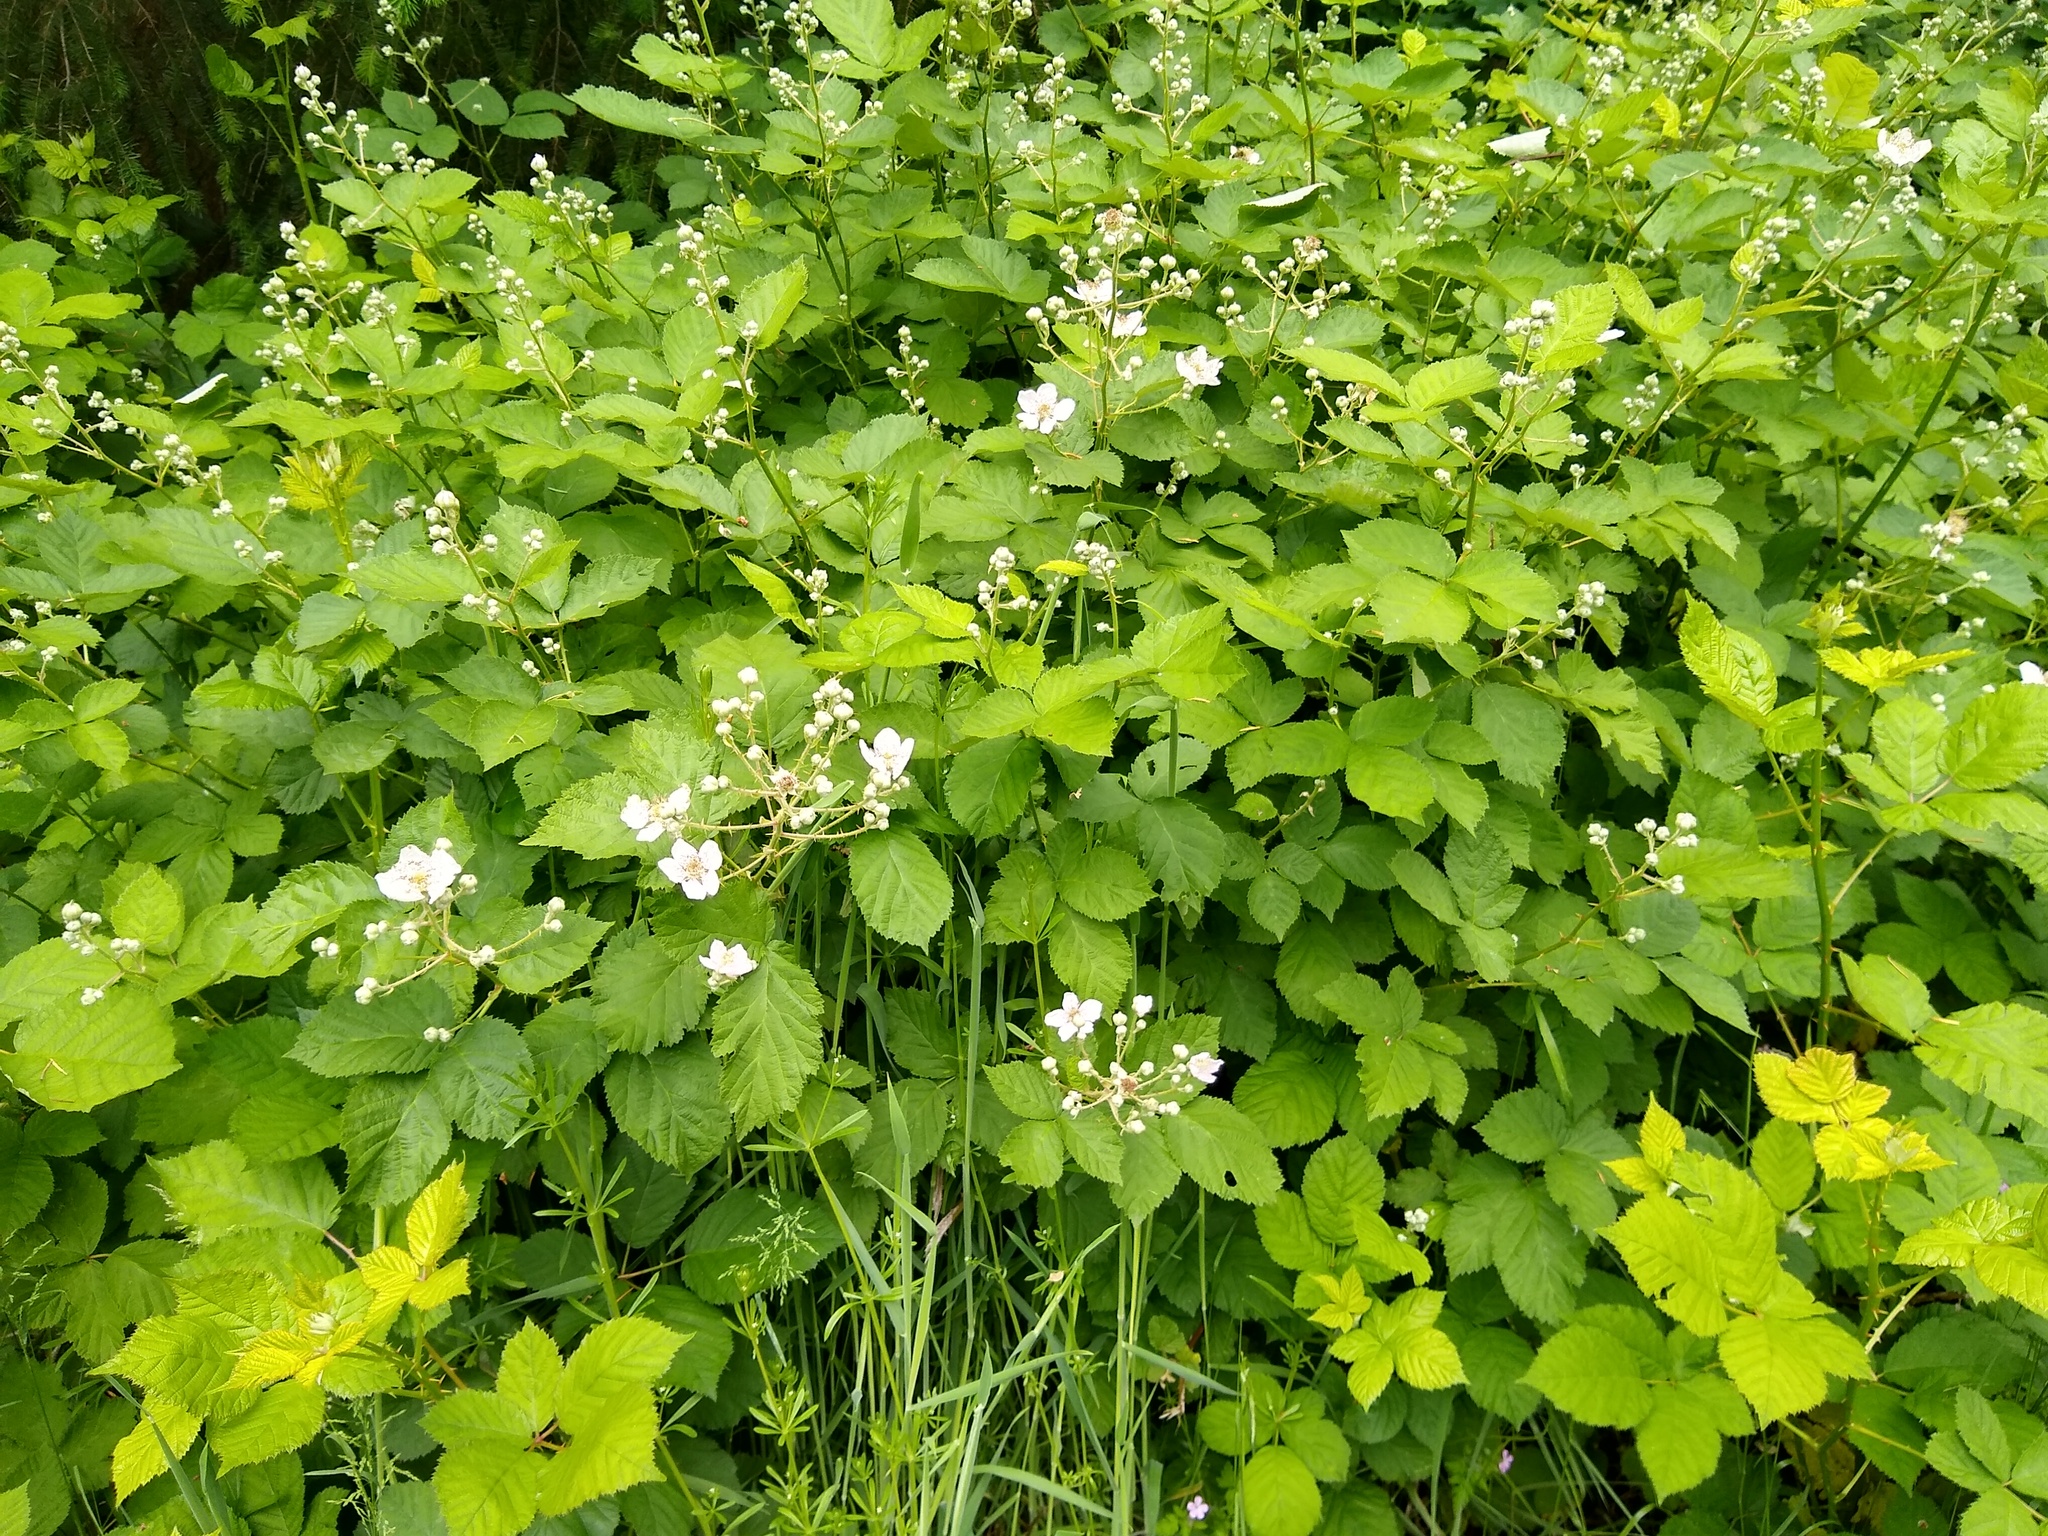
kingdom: Plantae
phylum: Tracheophyta
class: Magnoliopsida
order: Rosales
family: Rosaceae
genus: Rubus
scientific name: Rubus bifrons
